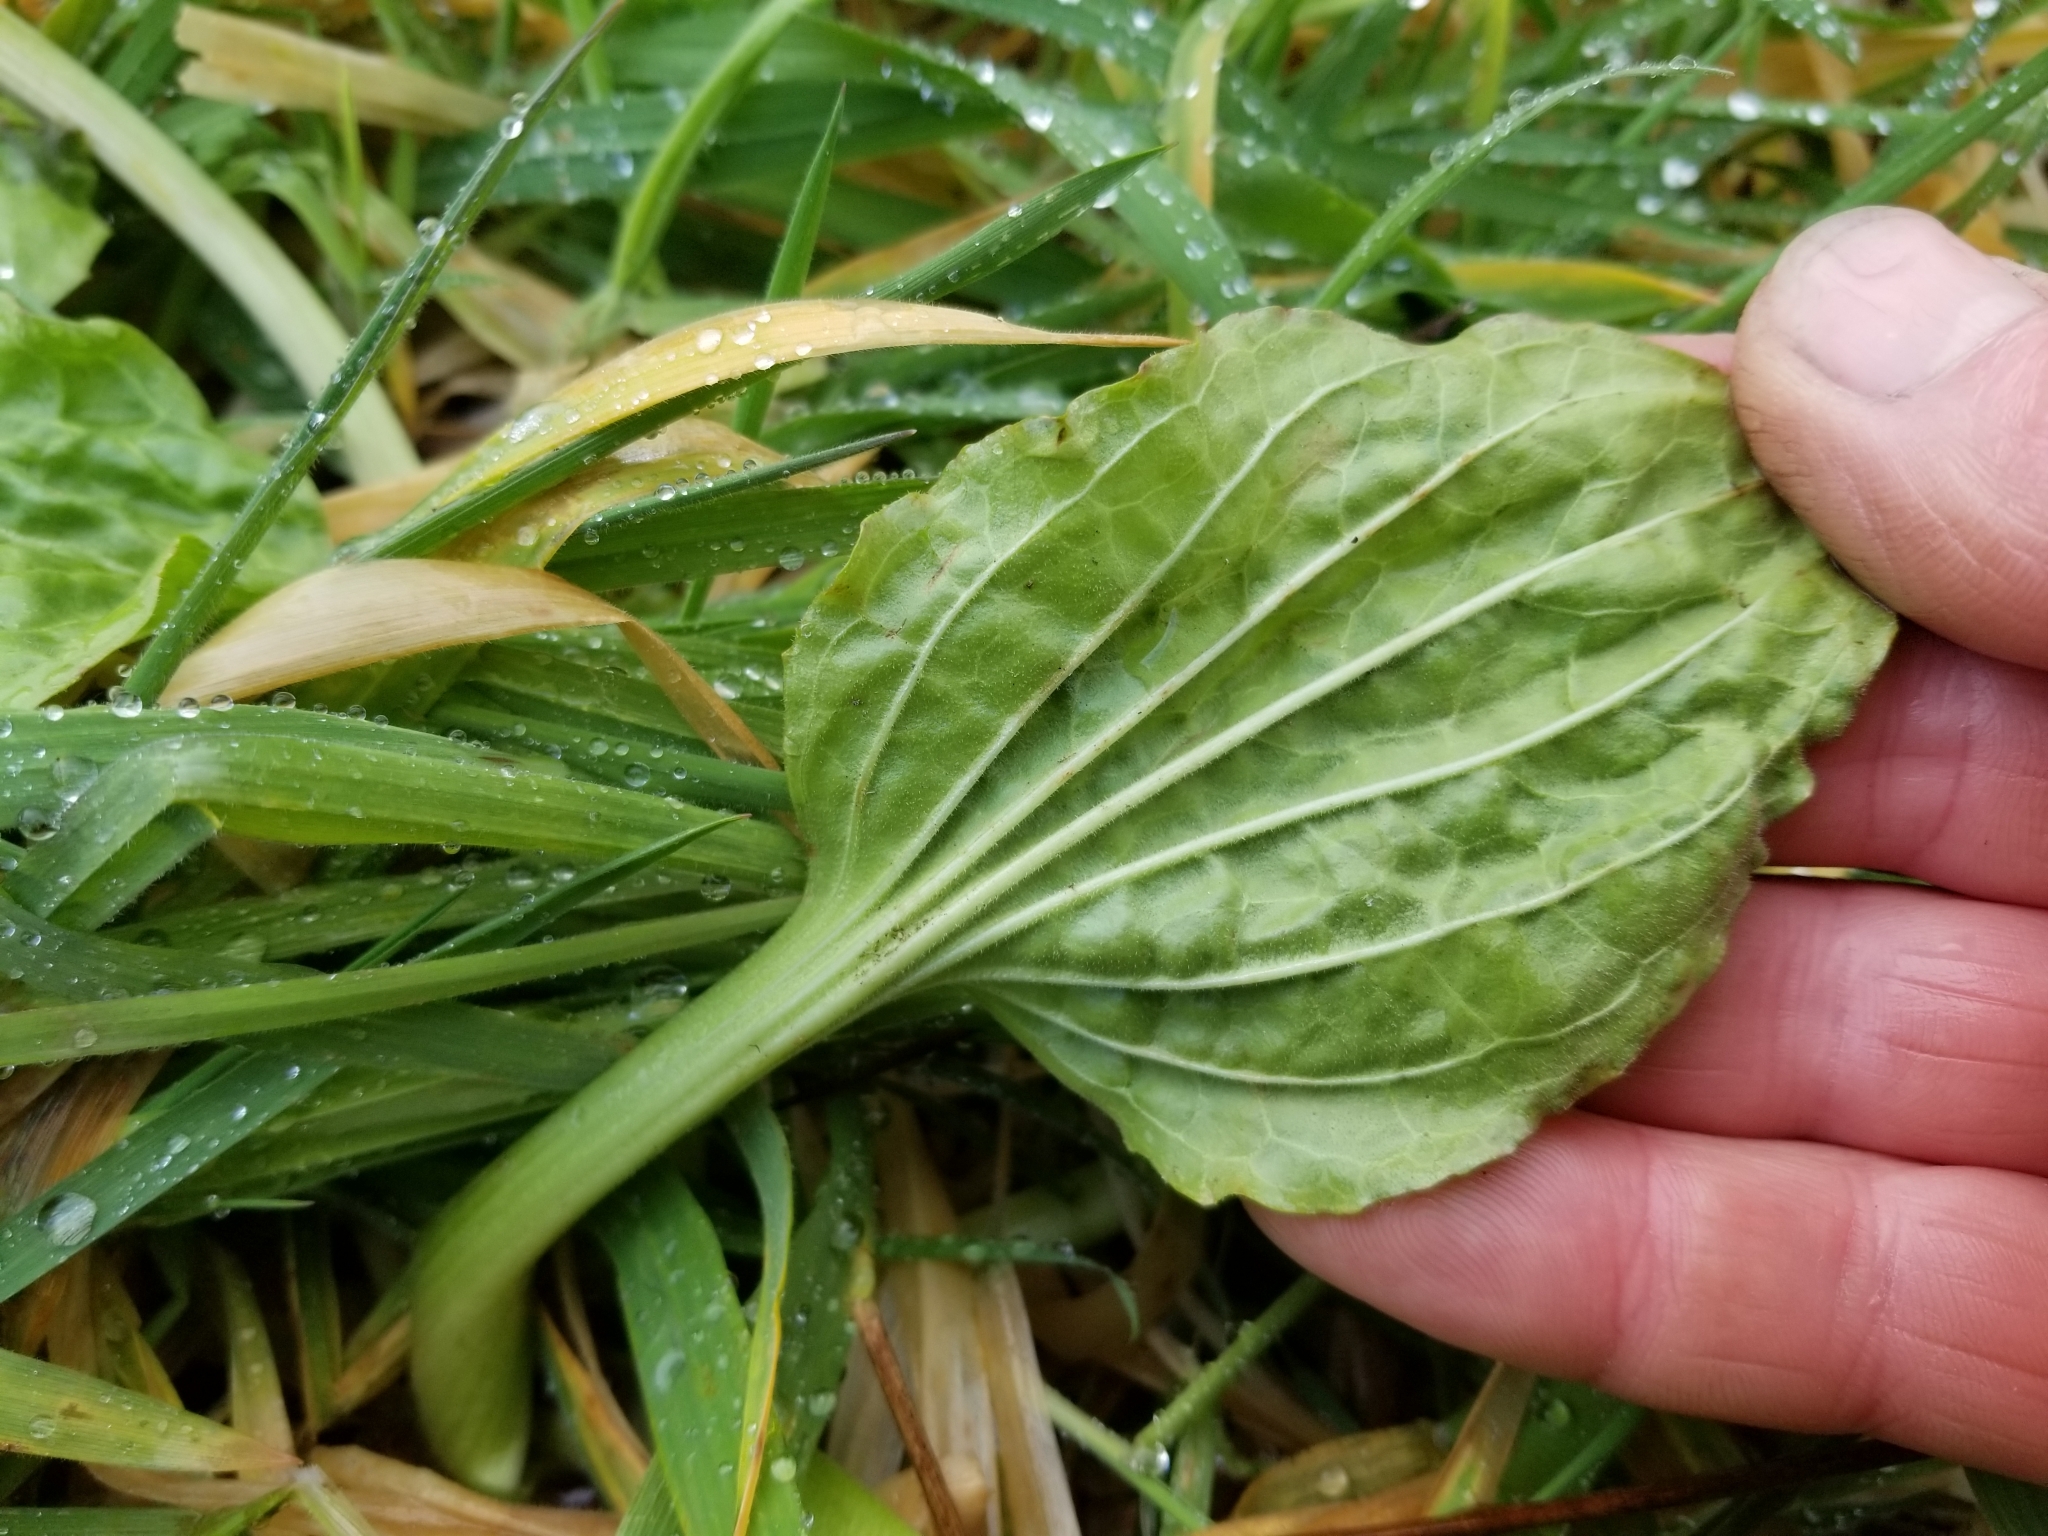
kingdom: Plantae
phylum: Tracheophyta
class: Magnoliopsida
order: Lamiales
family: Plantaginaceae
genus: Plantago
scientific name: Plantago major
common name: Common plantain
